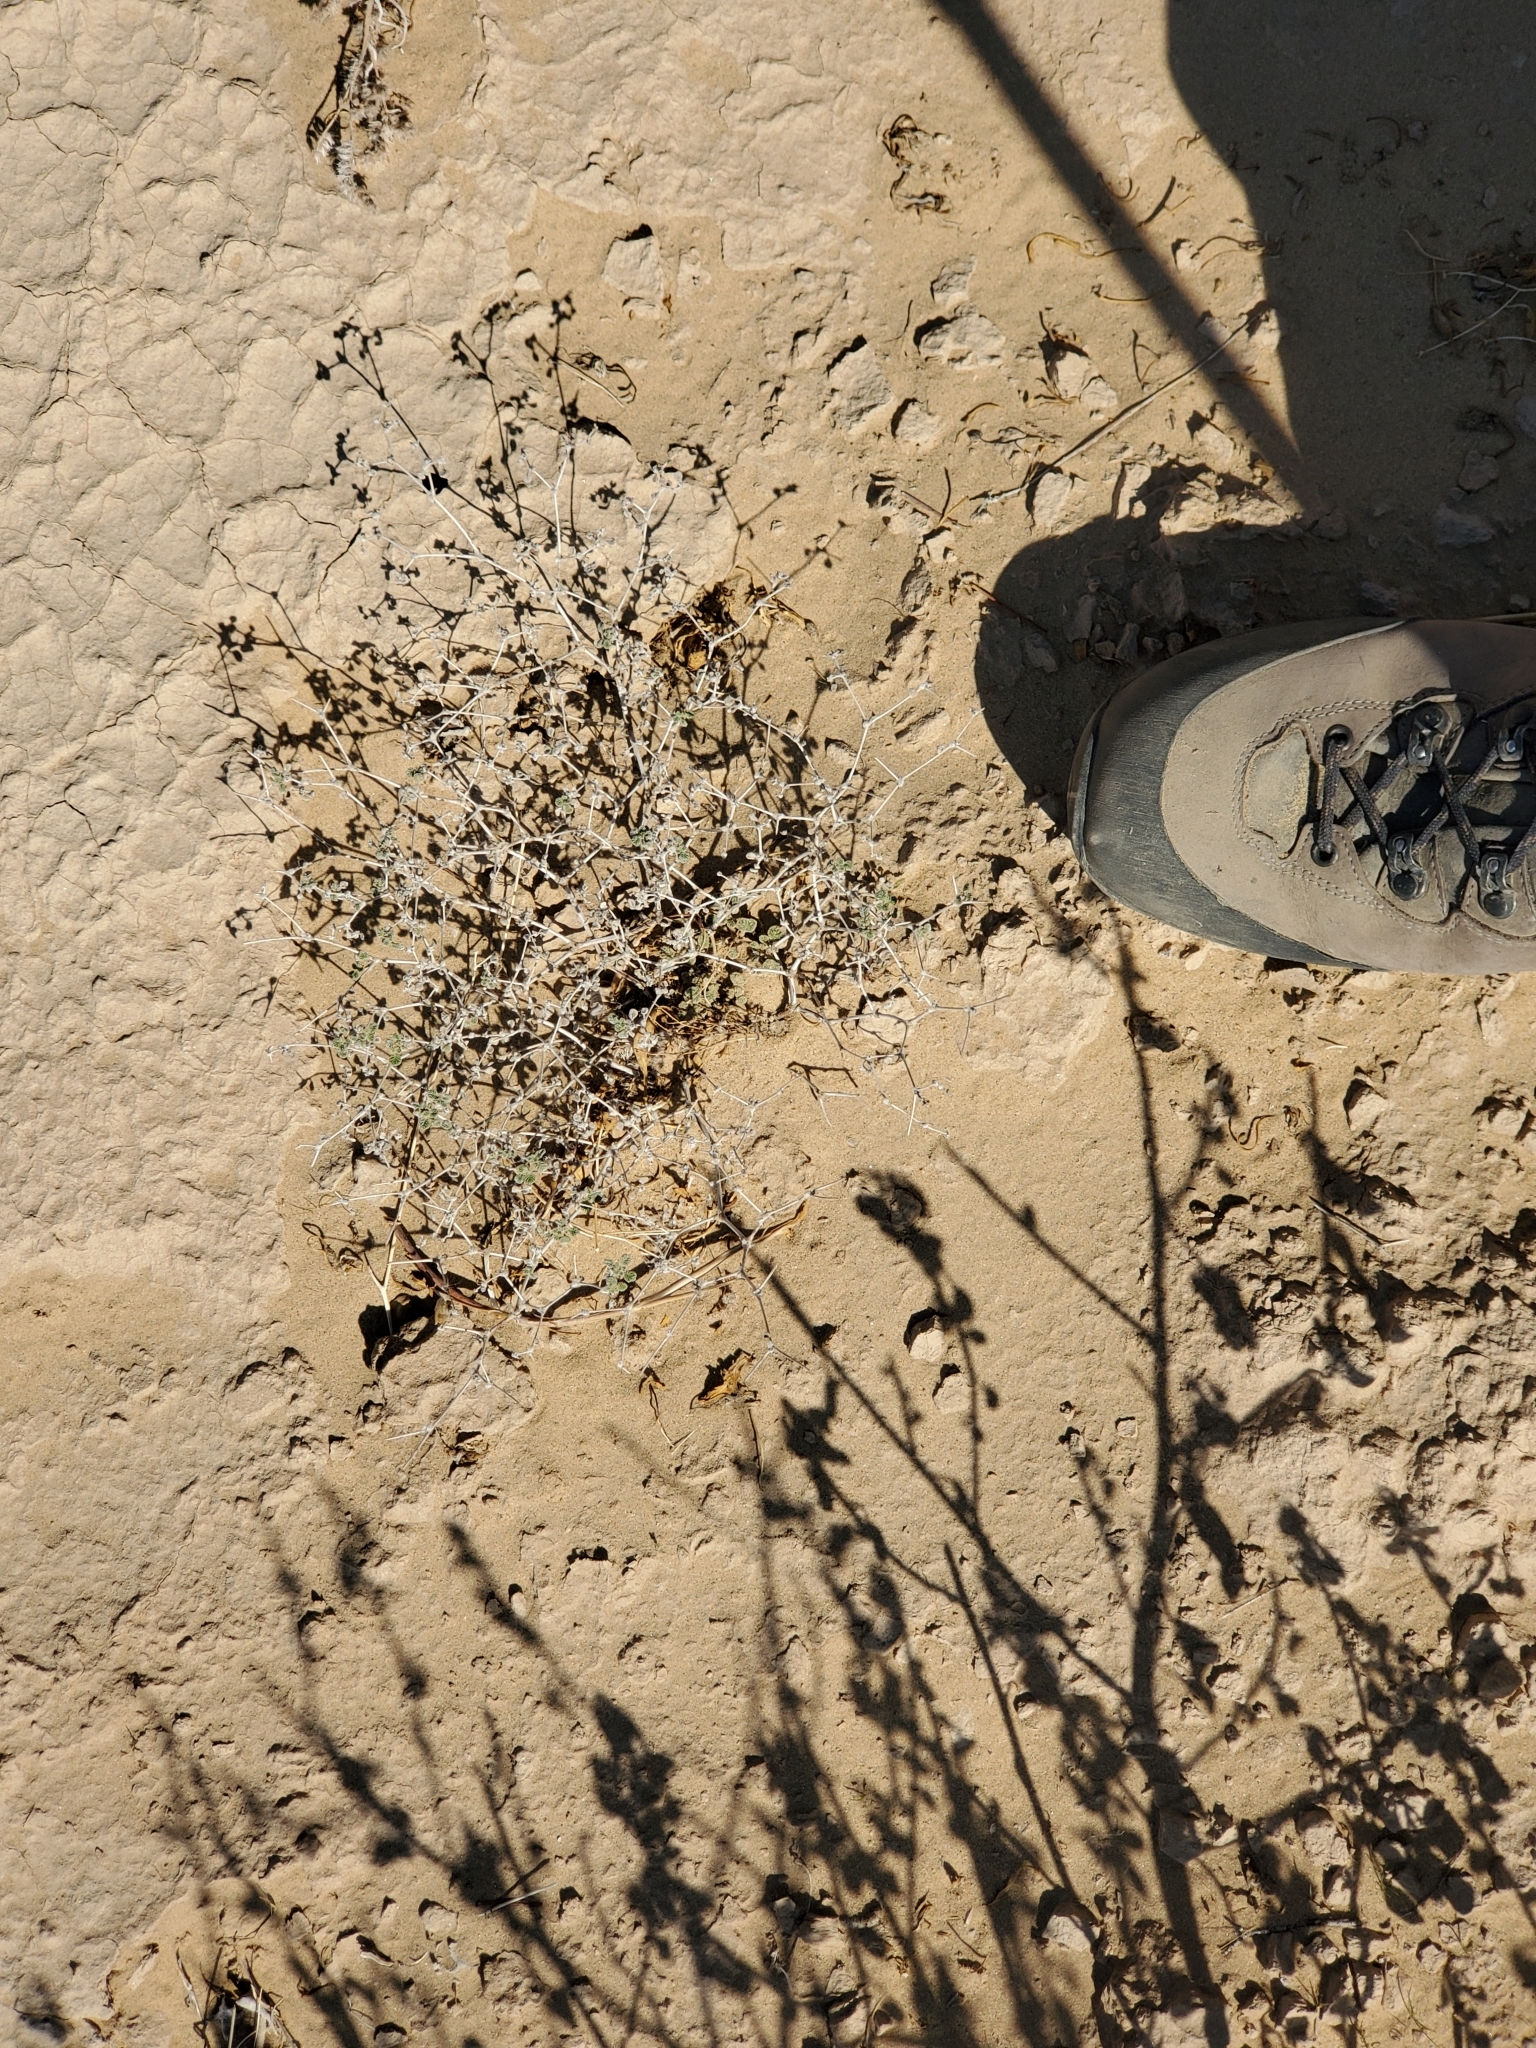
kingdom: Plantae
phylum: Tracheophyta
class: Magnoliopsida
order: Boraginales
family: Ehretiaceae
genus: Tiquilia
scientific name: Tiquilia plicata
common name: Fan-leaf tiquilia
